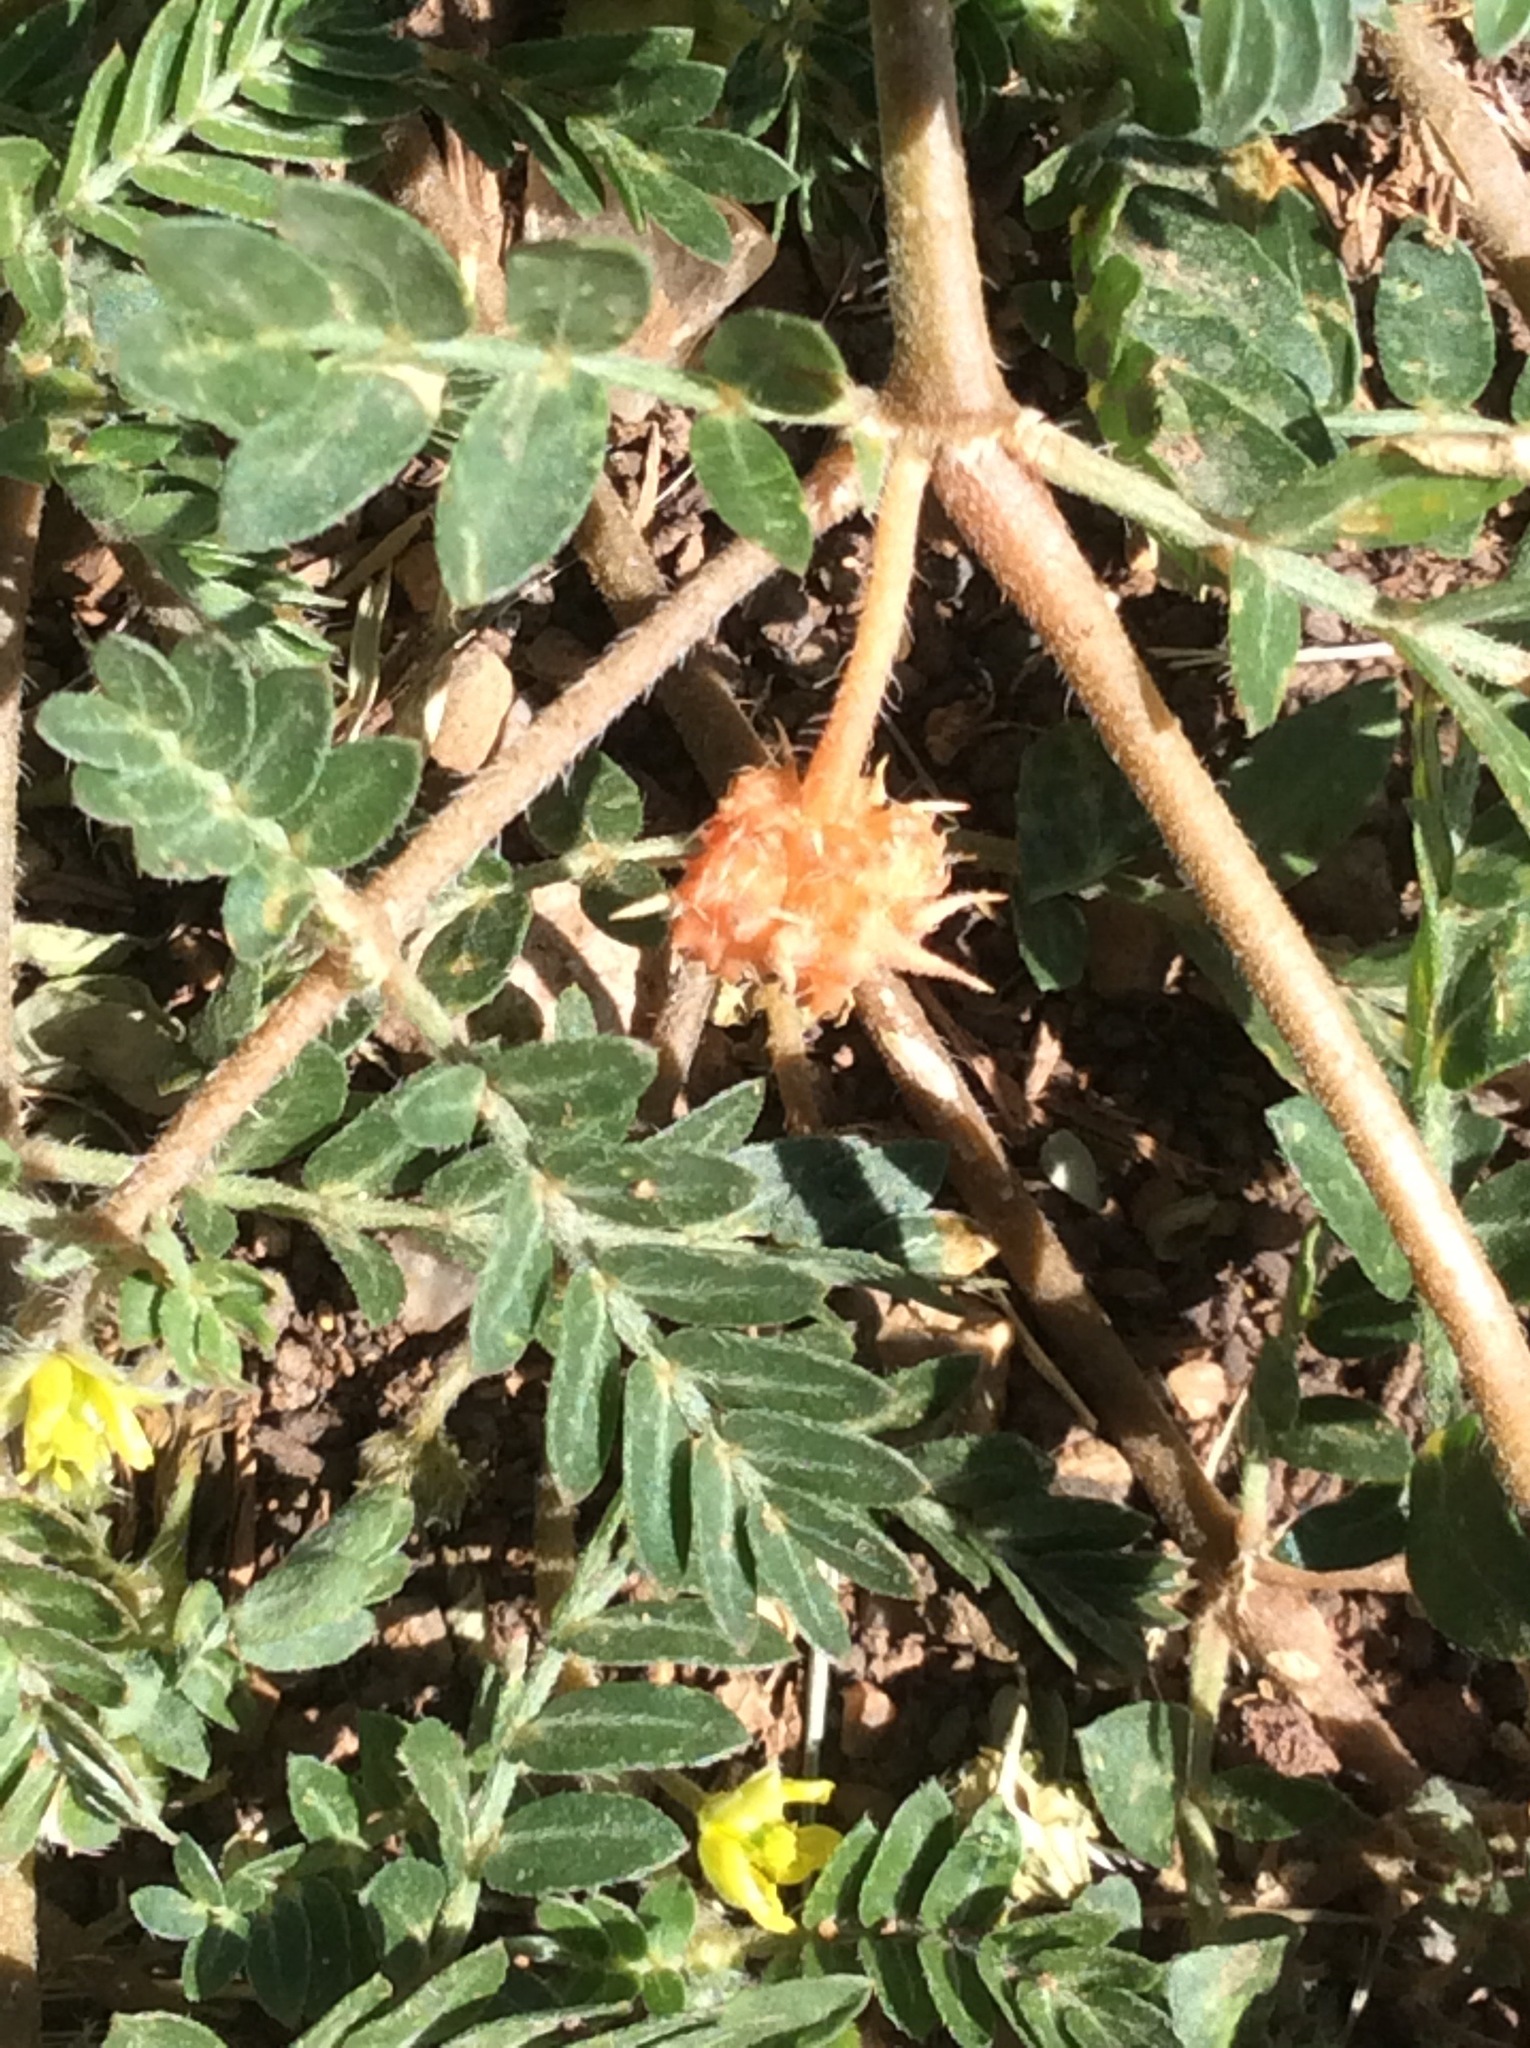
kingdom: Plantae
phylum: Tracheophyta
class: Magnoliopsida
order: Zygophyllales
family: Zygophyllaceae
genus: Tribulus
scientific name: Tribulus terrestris
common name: Puncturevine
